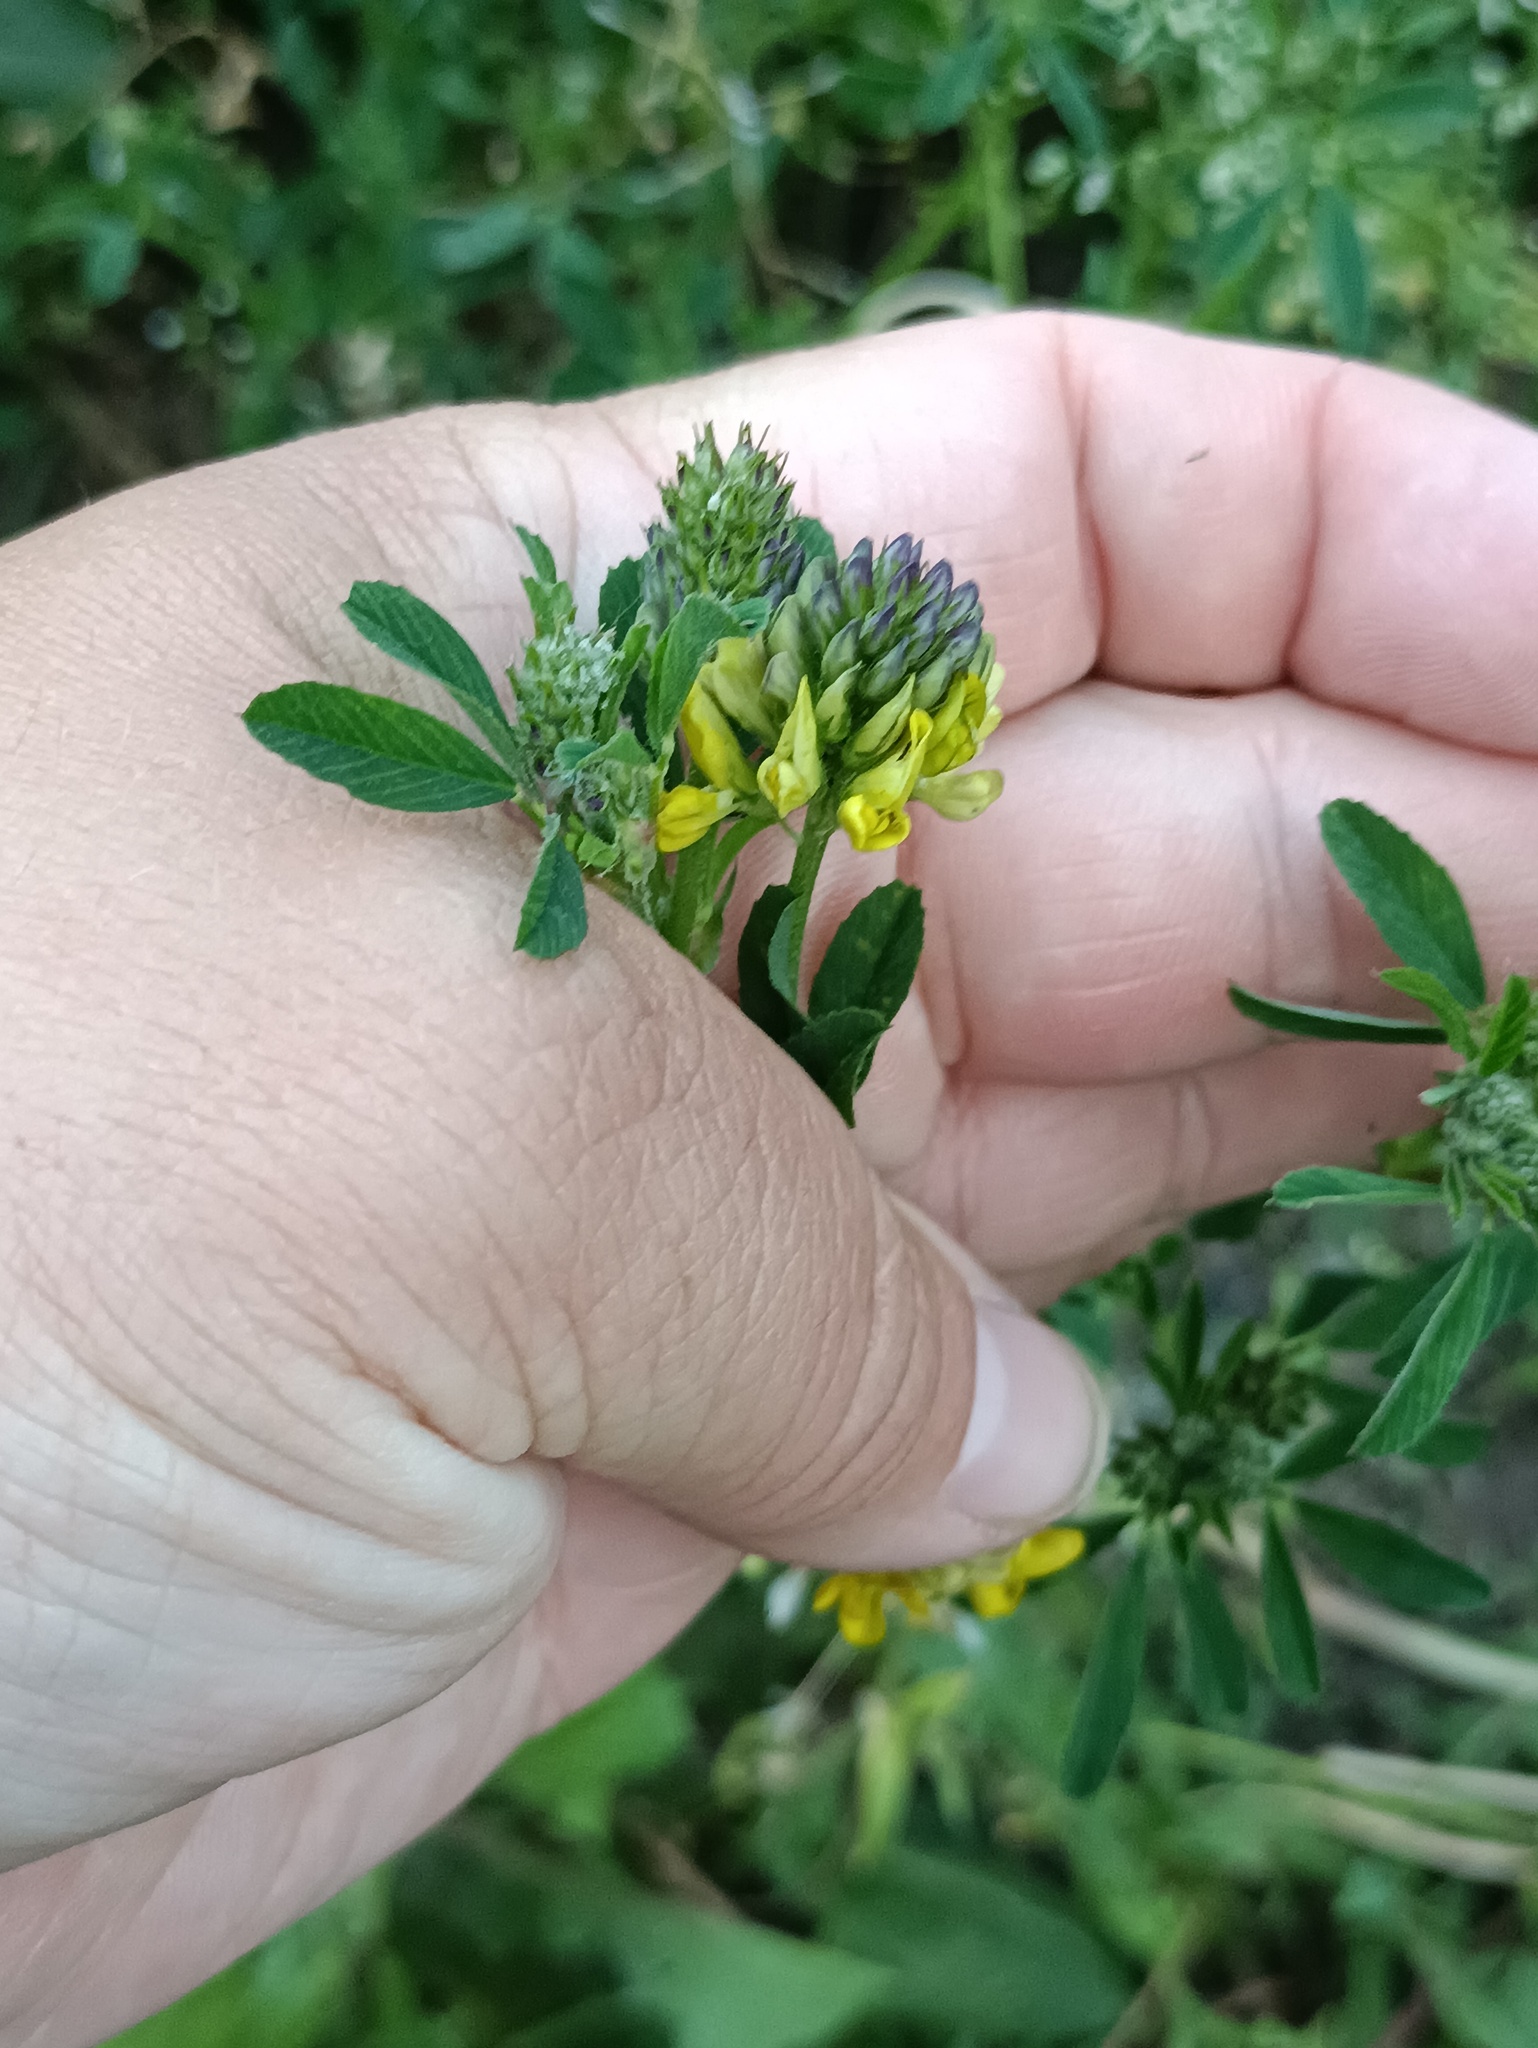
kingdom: Plantae
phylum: Tracheophyta
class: Magnoliopsida
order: Fabales
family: Fabaceae
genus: Medicago
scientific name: Medicago falcata
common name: Sickle medick
